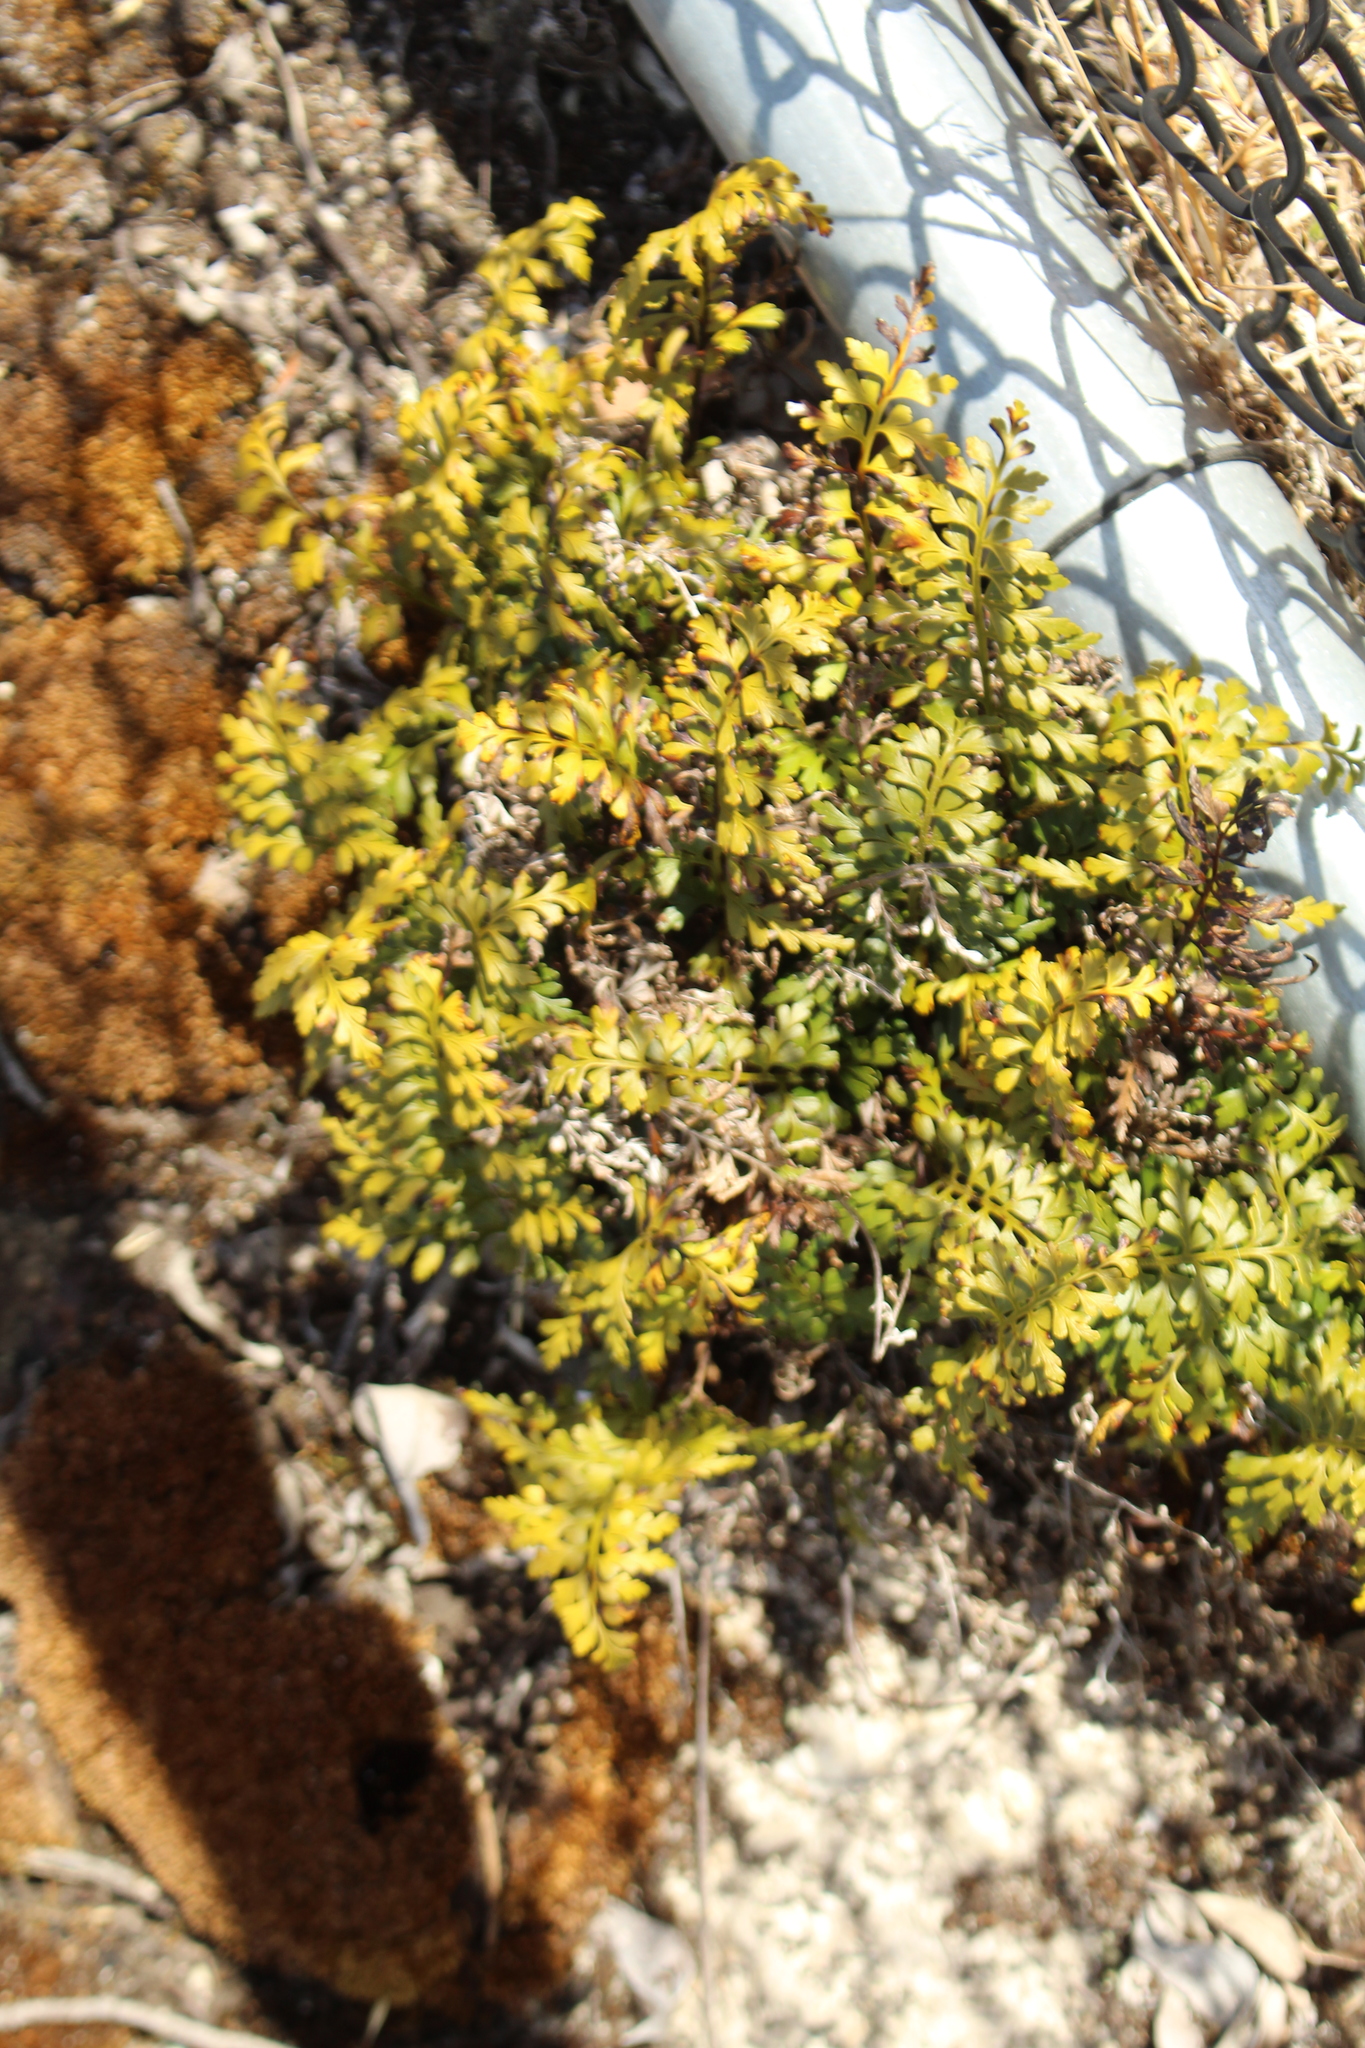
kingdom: Plantae
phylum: Tracheophyta
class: Polypodiopsida
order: Polypodiales
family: Aspleniaceae
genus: Asplenium
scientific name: Asplenium aethiopicum
